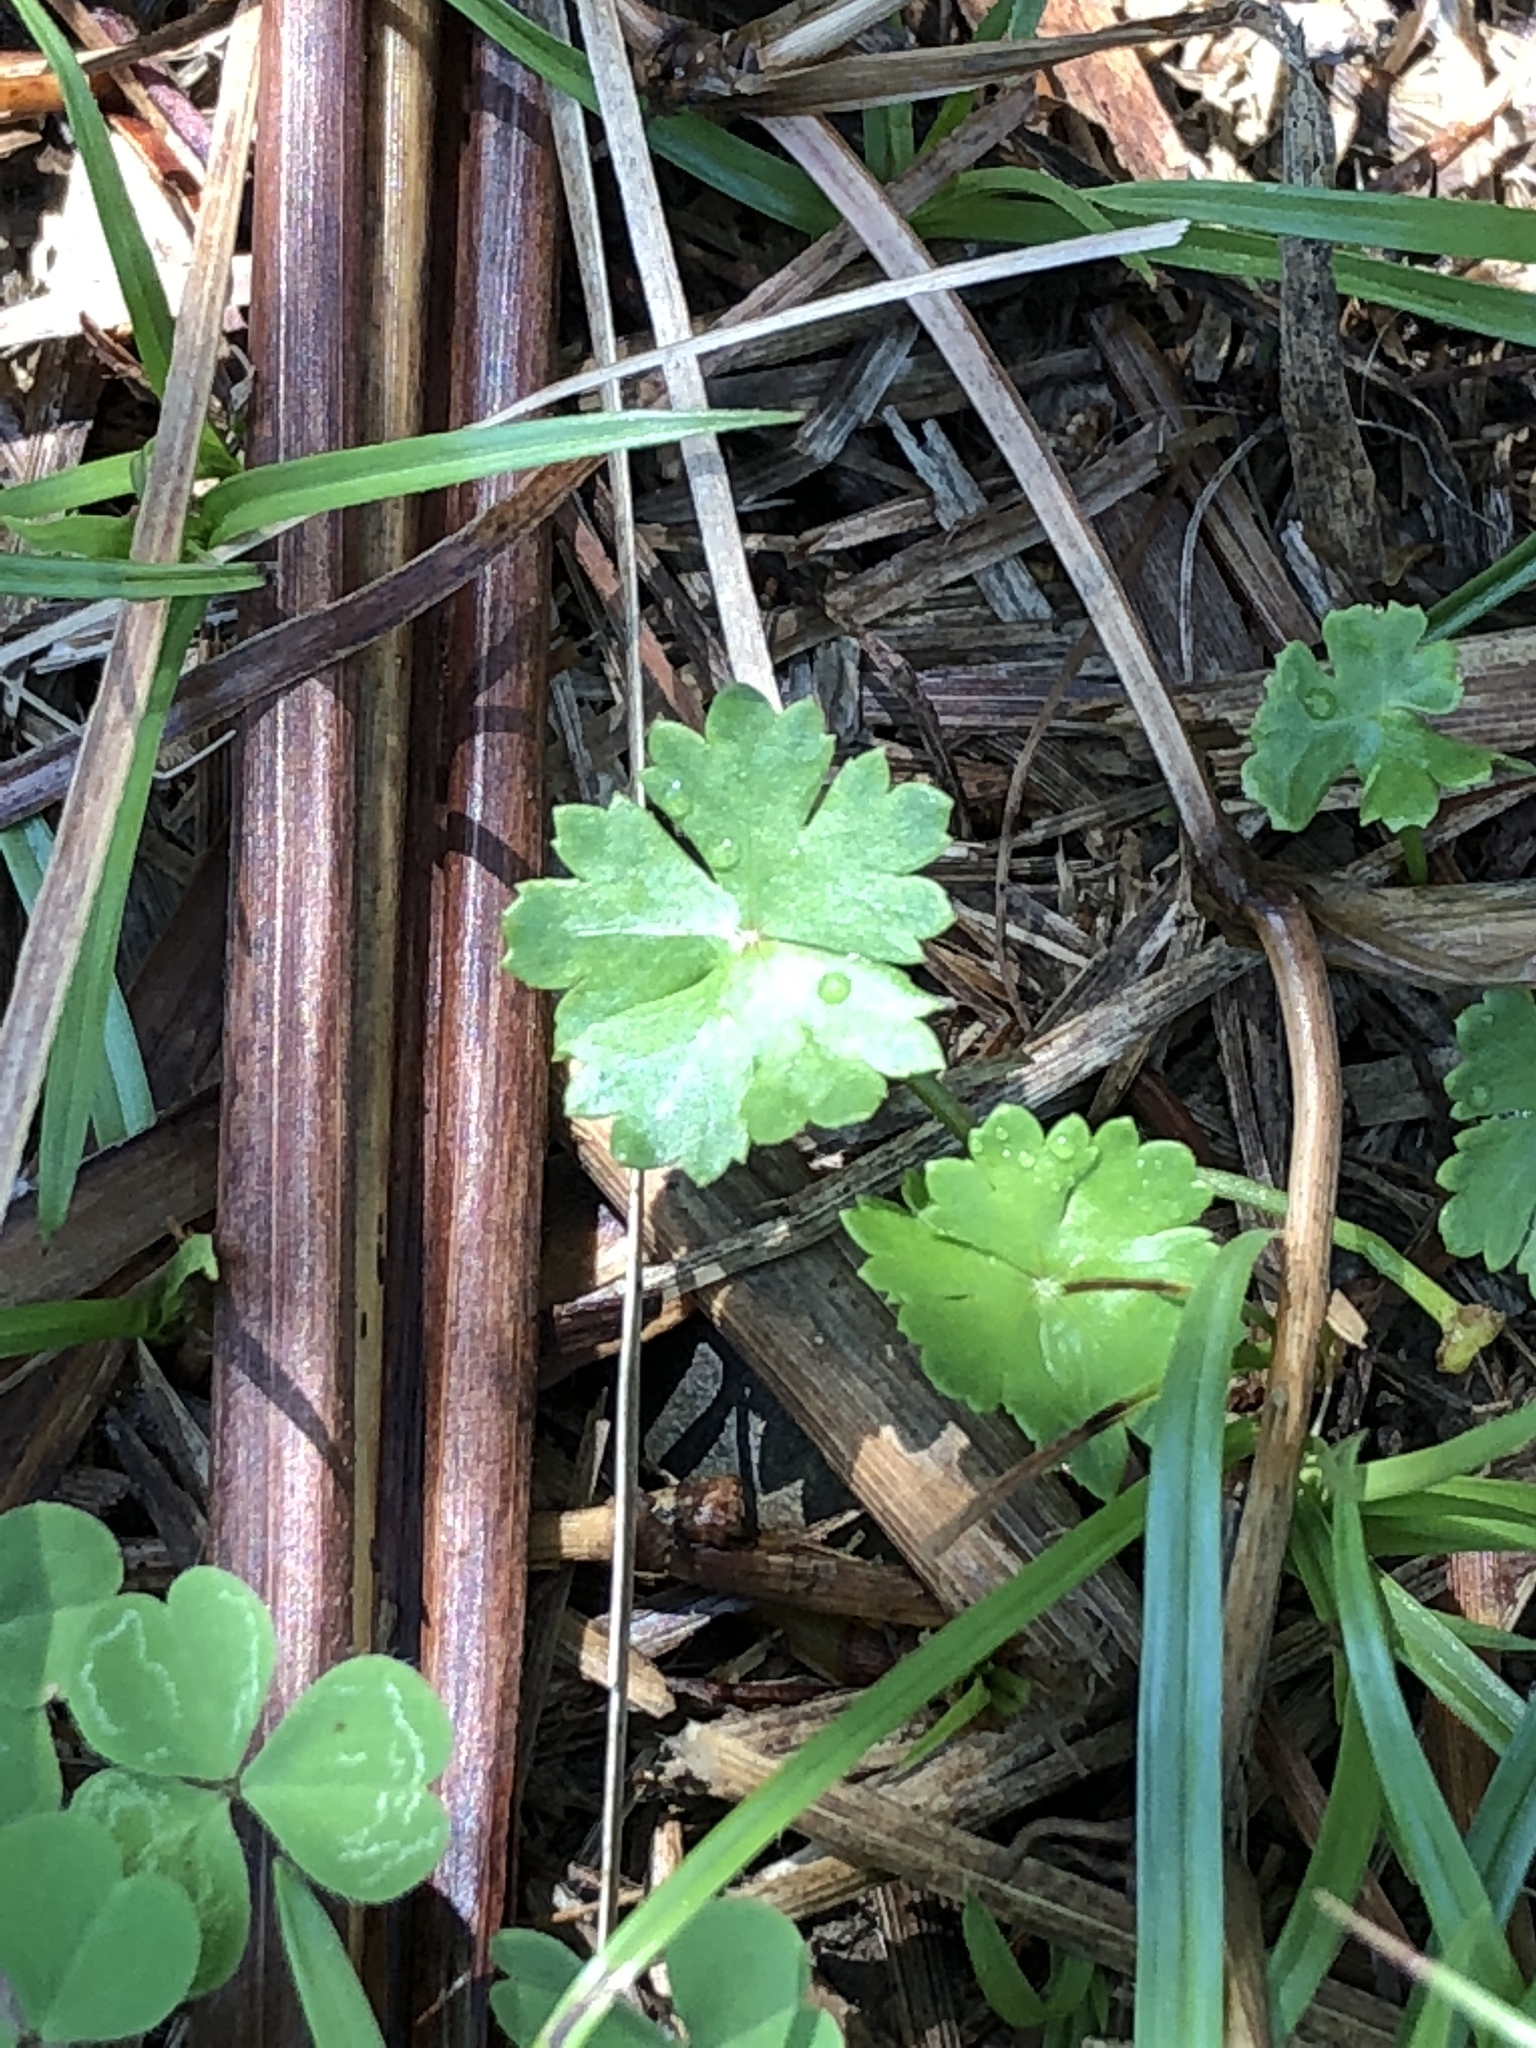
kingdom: Plantae
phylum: Tracheophyta
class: Magnoliopsida
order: Apiales
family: Araliaceae
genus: Hydrocotyle
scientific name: Hydrocotyle batrachium
